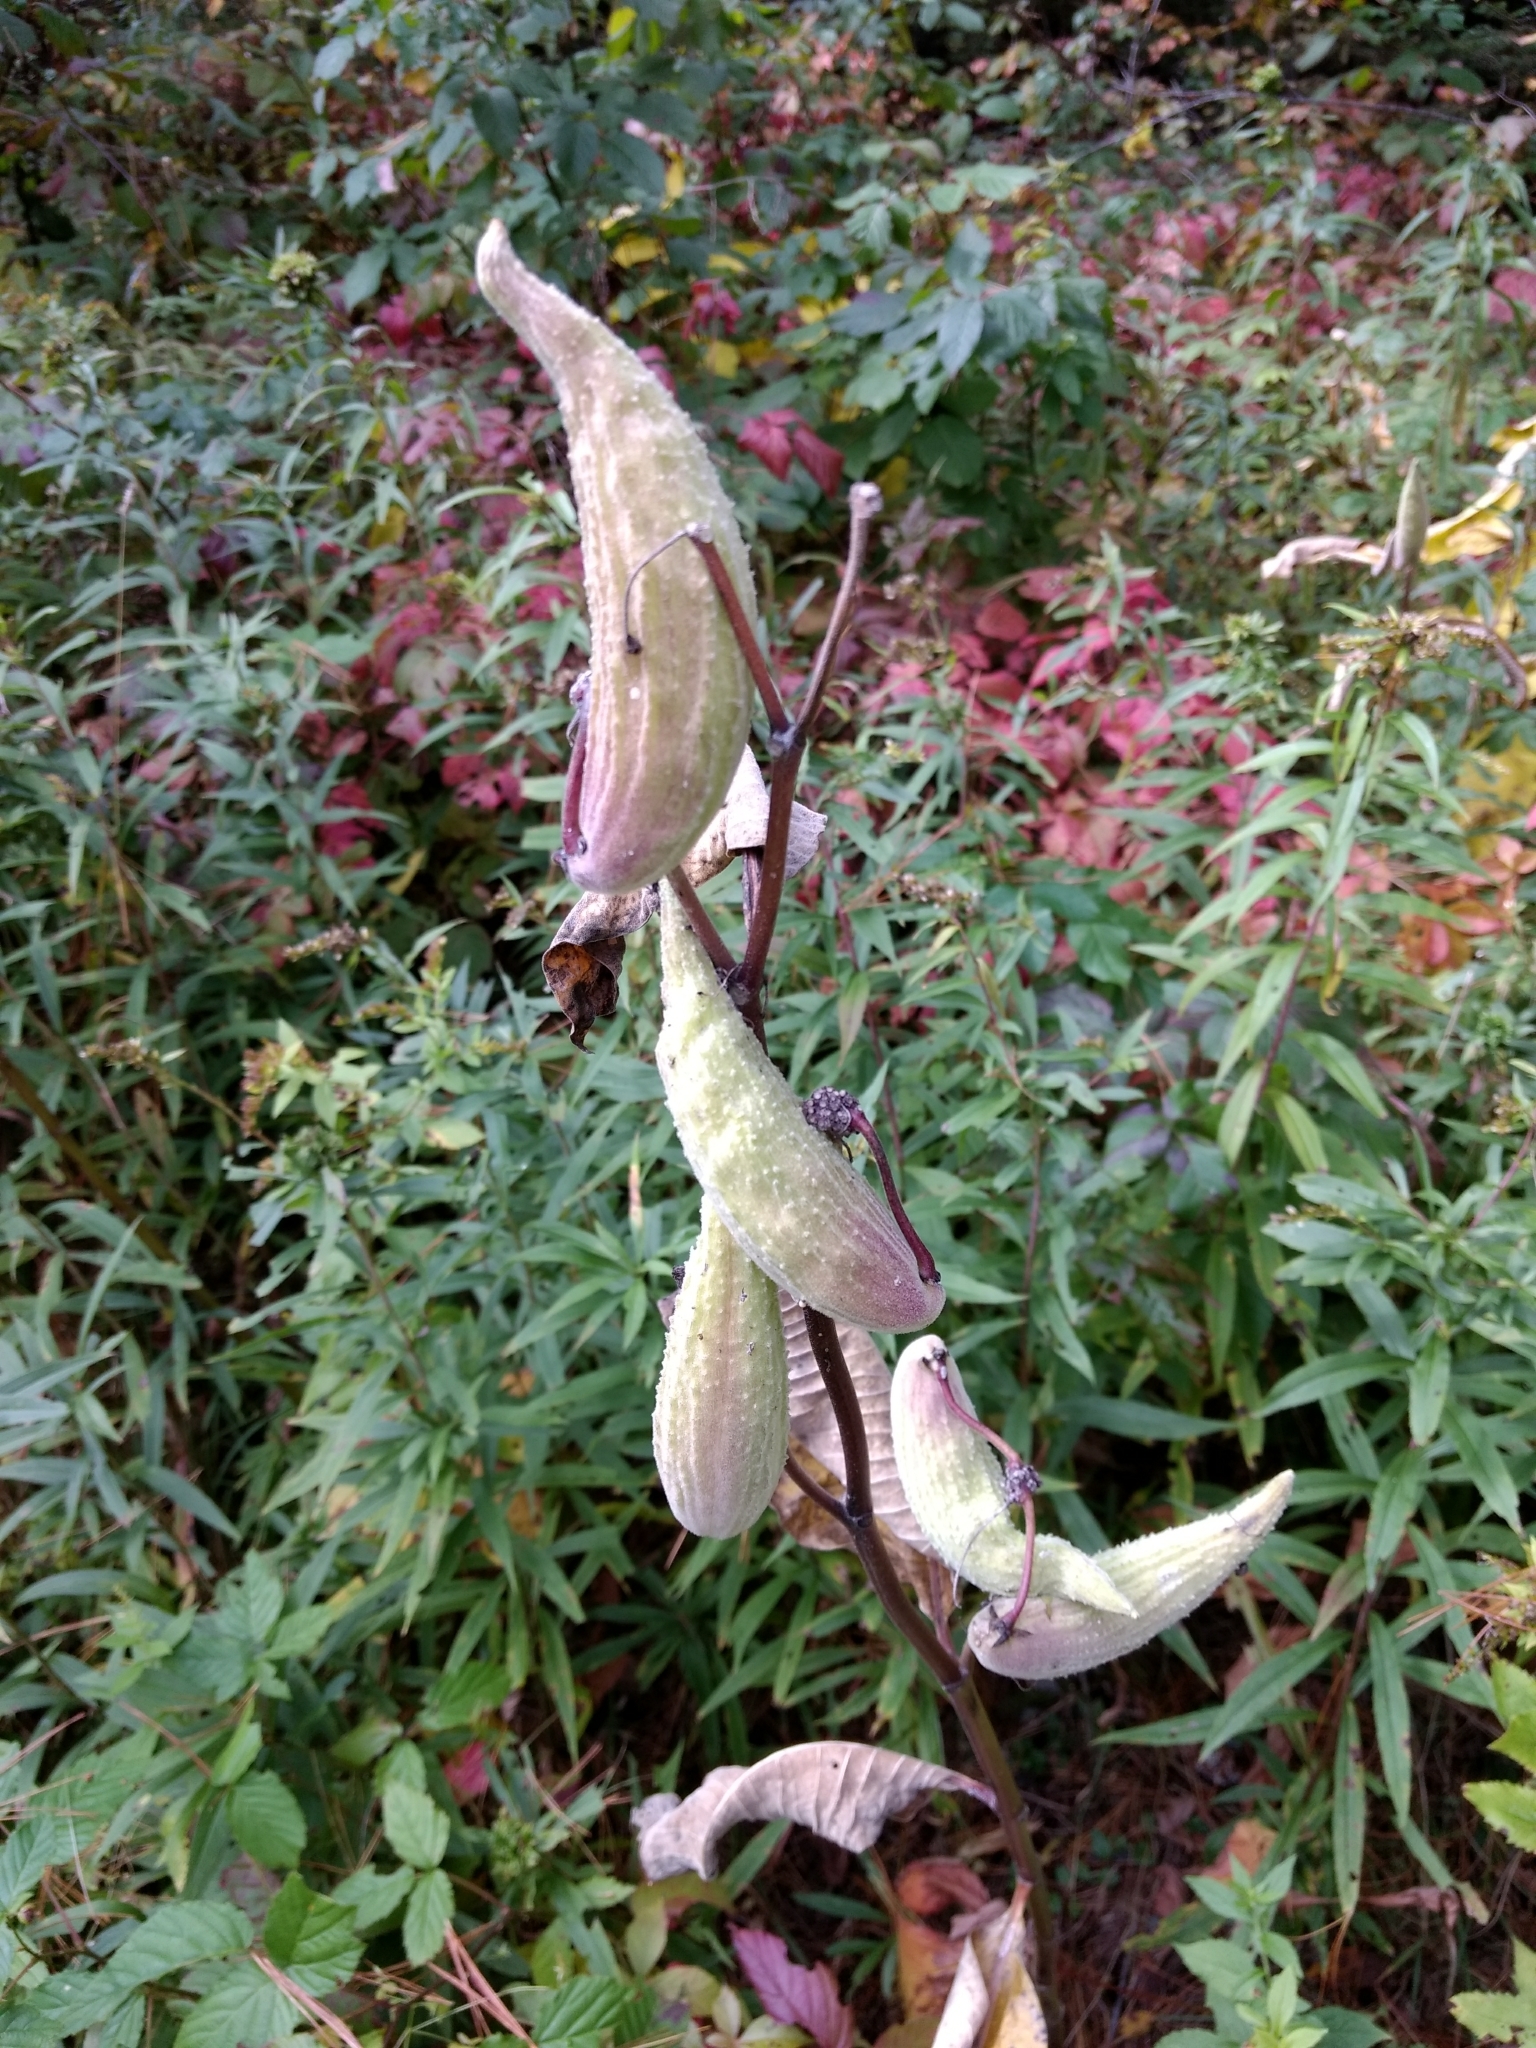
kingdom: Plantae
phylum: Tracheophyta
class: Magnoliopsida
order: Gentianales
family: Apocynaceae
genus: Asclepias
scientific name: Asclepias syriaca
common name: Common milkweed
